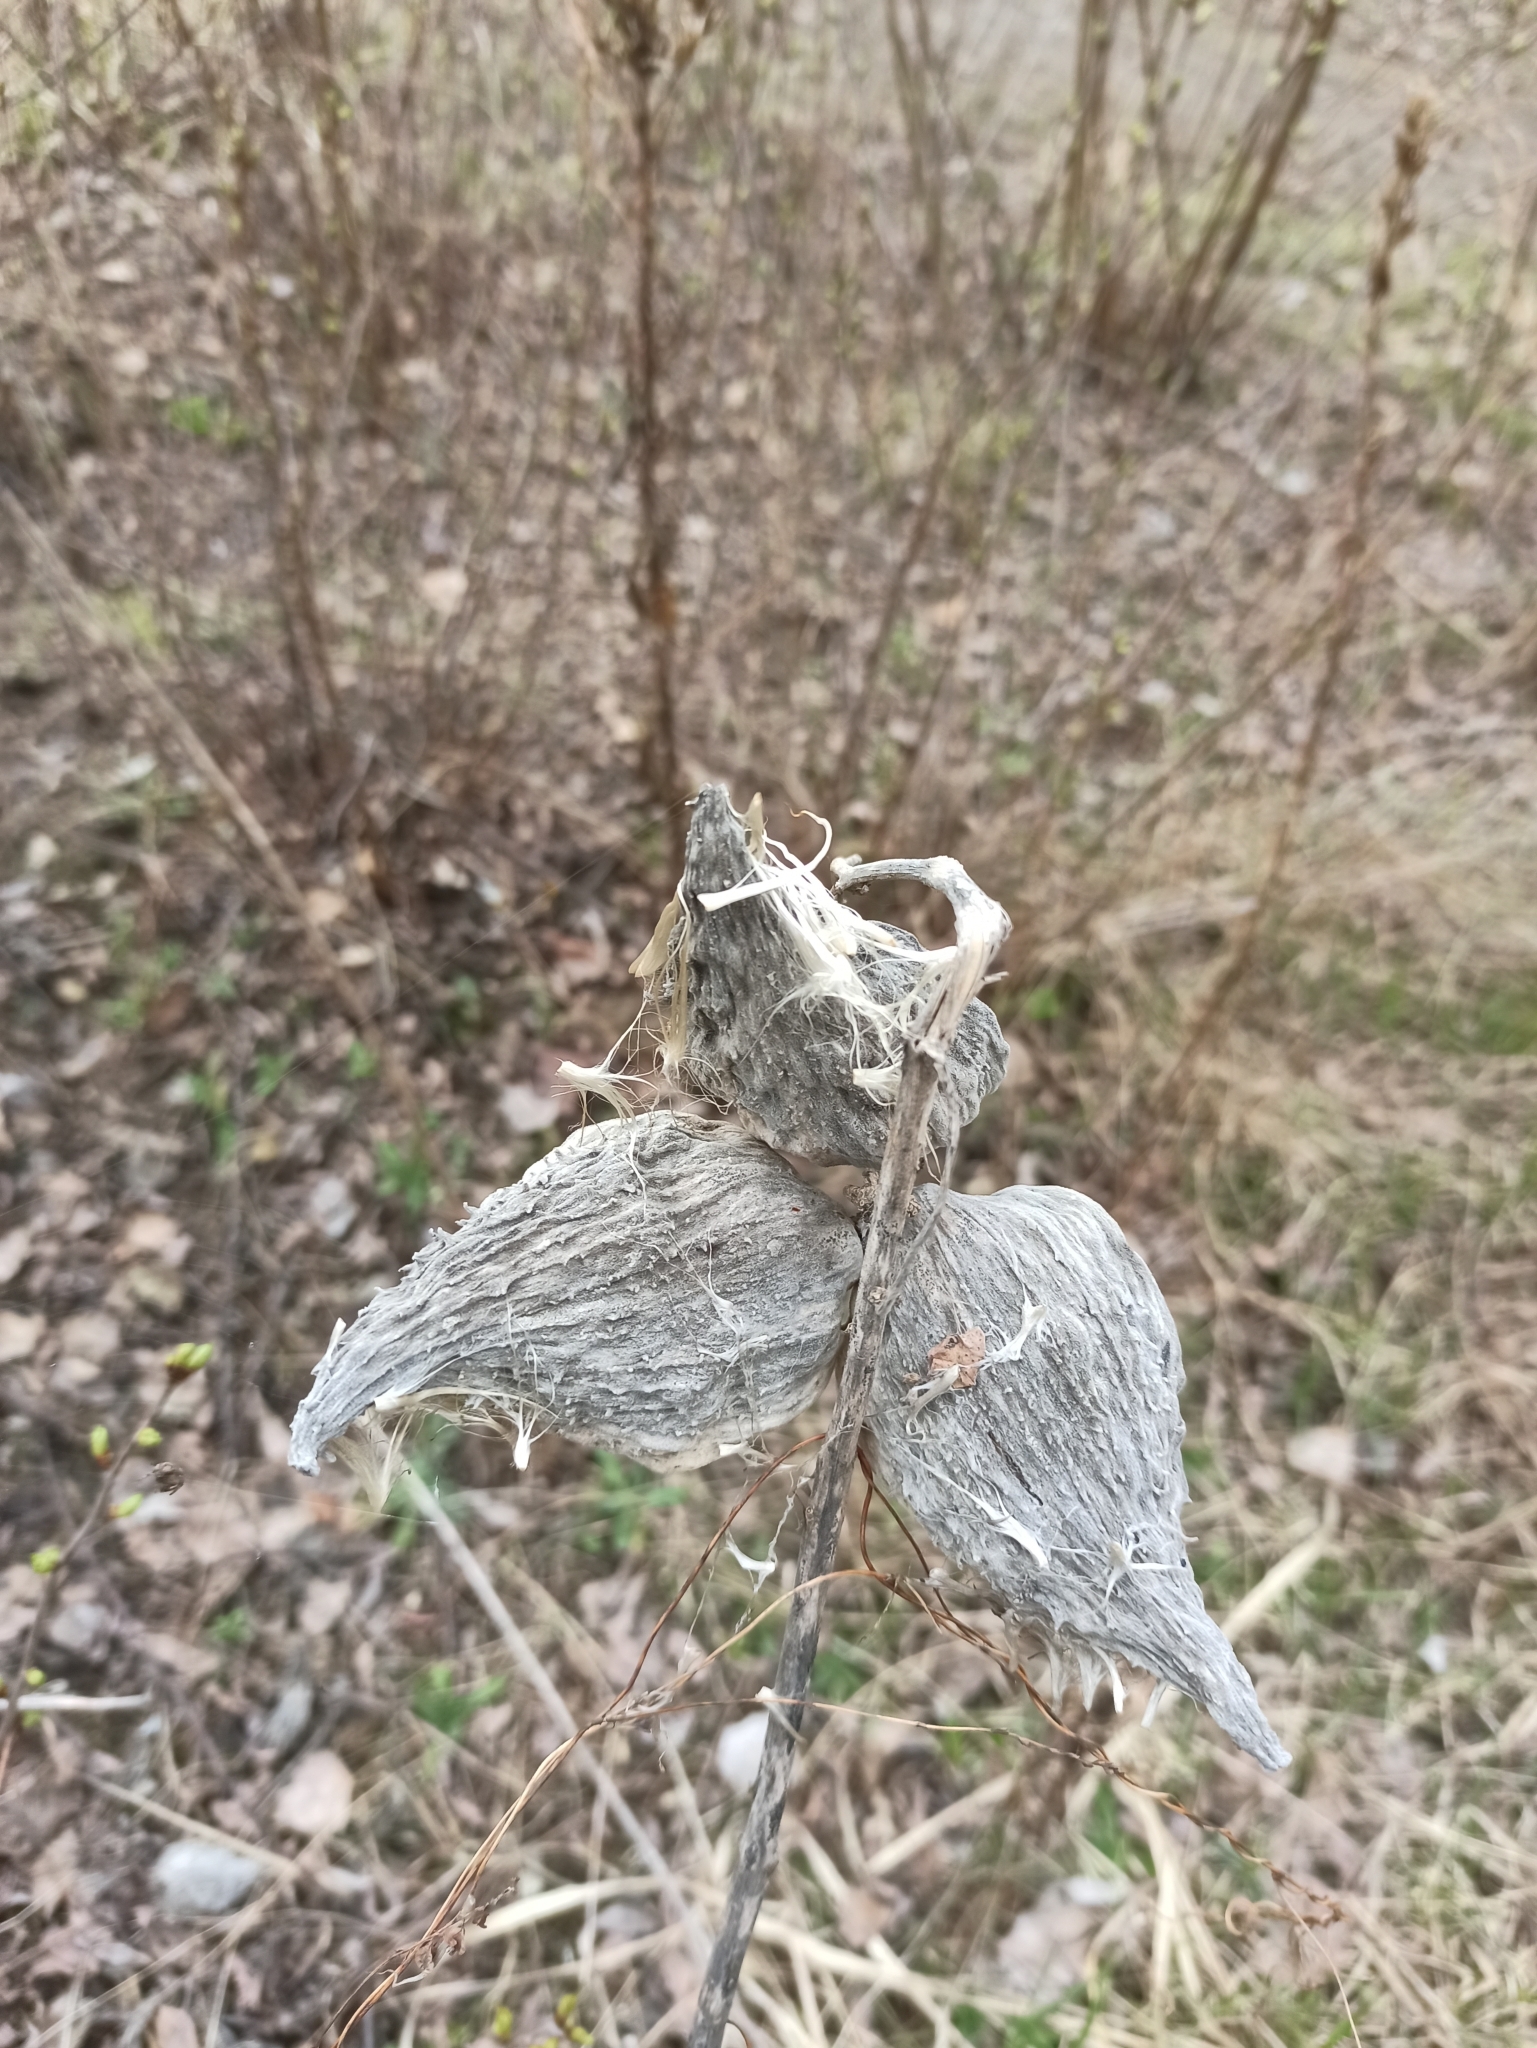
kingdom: Plantae
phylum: Tracheophyta
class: Magnoliopsida
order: Gentianales
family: Apocynaceae
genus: Asclepias
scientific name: Asclepias syriaca
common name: Common milkweed
